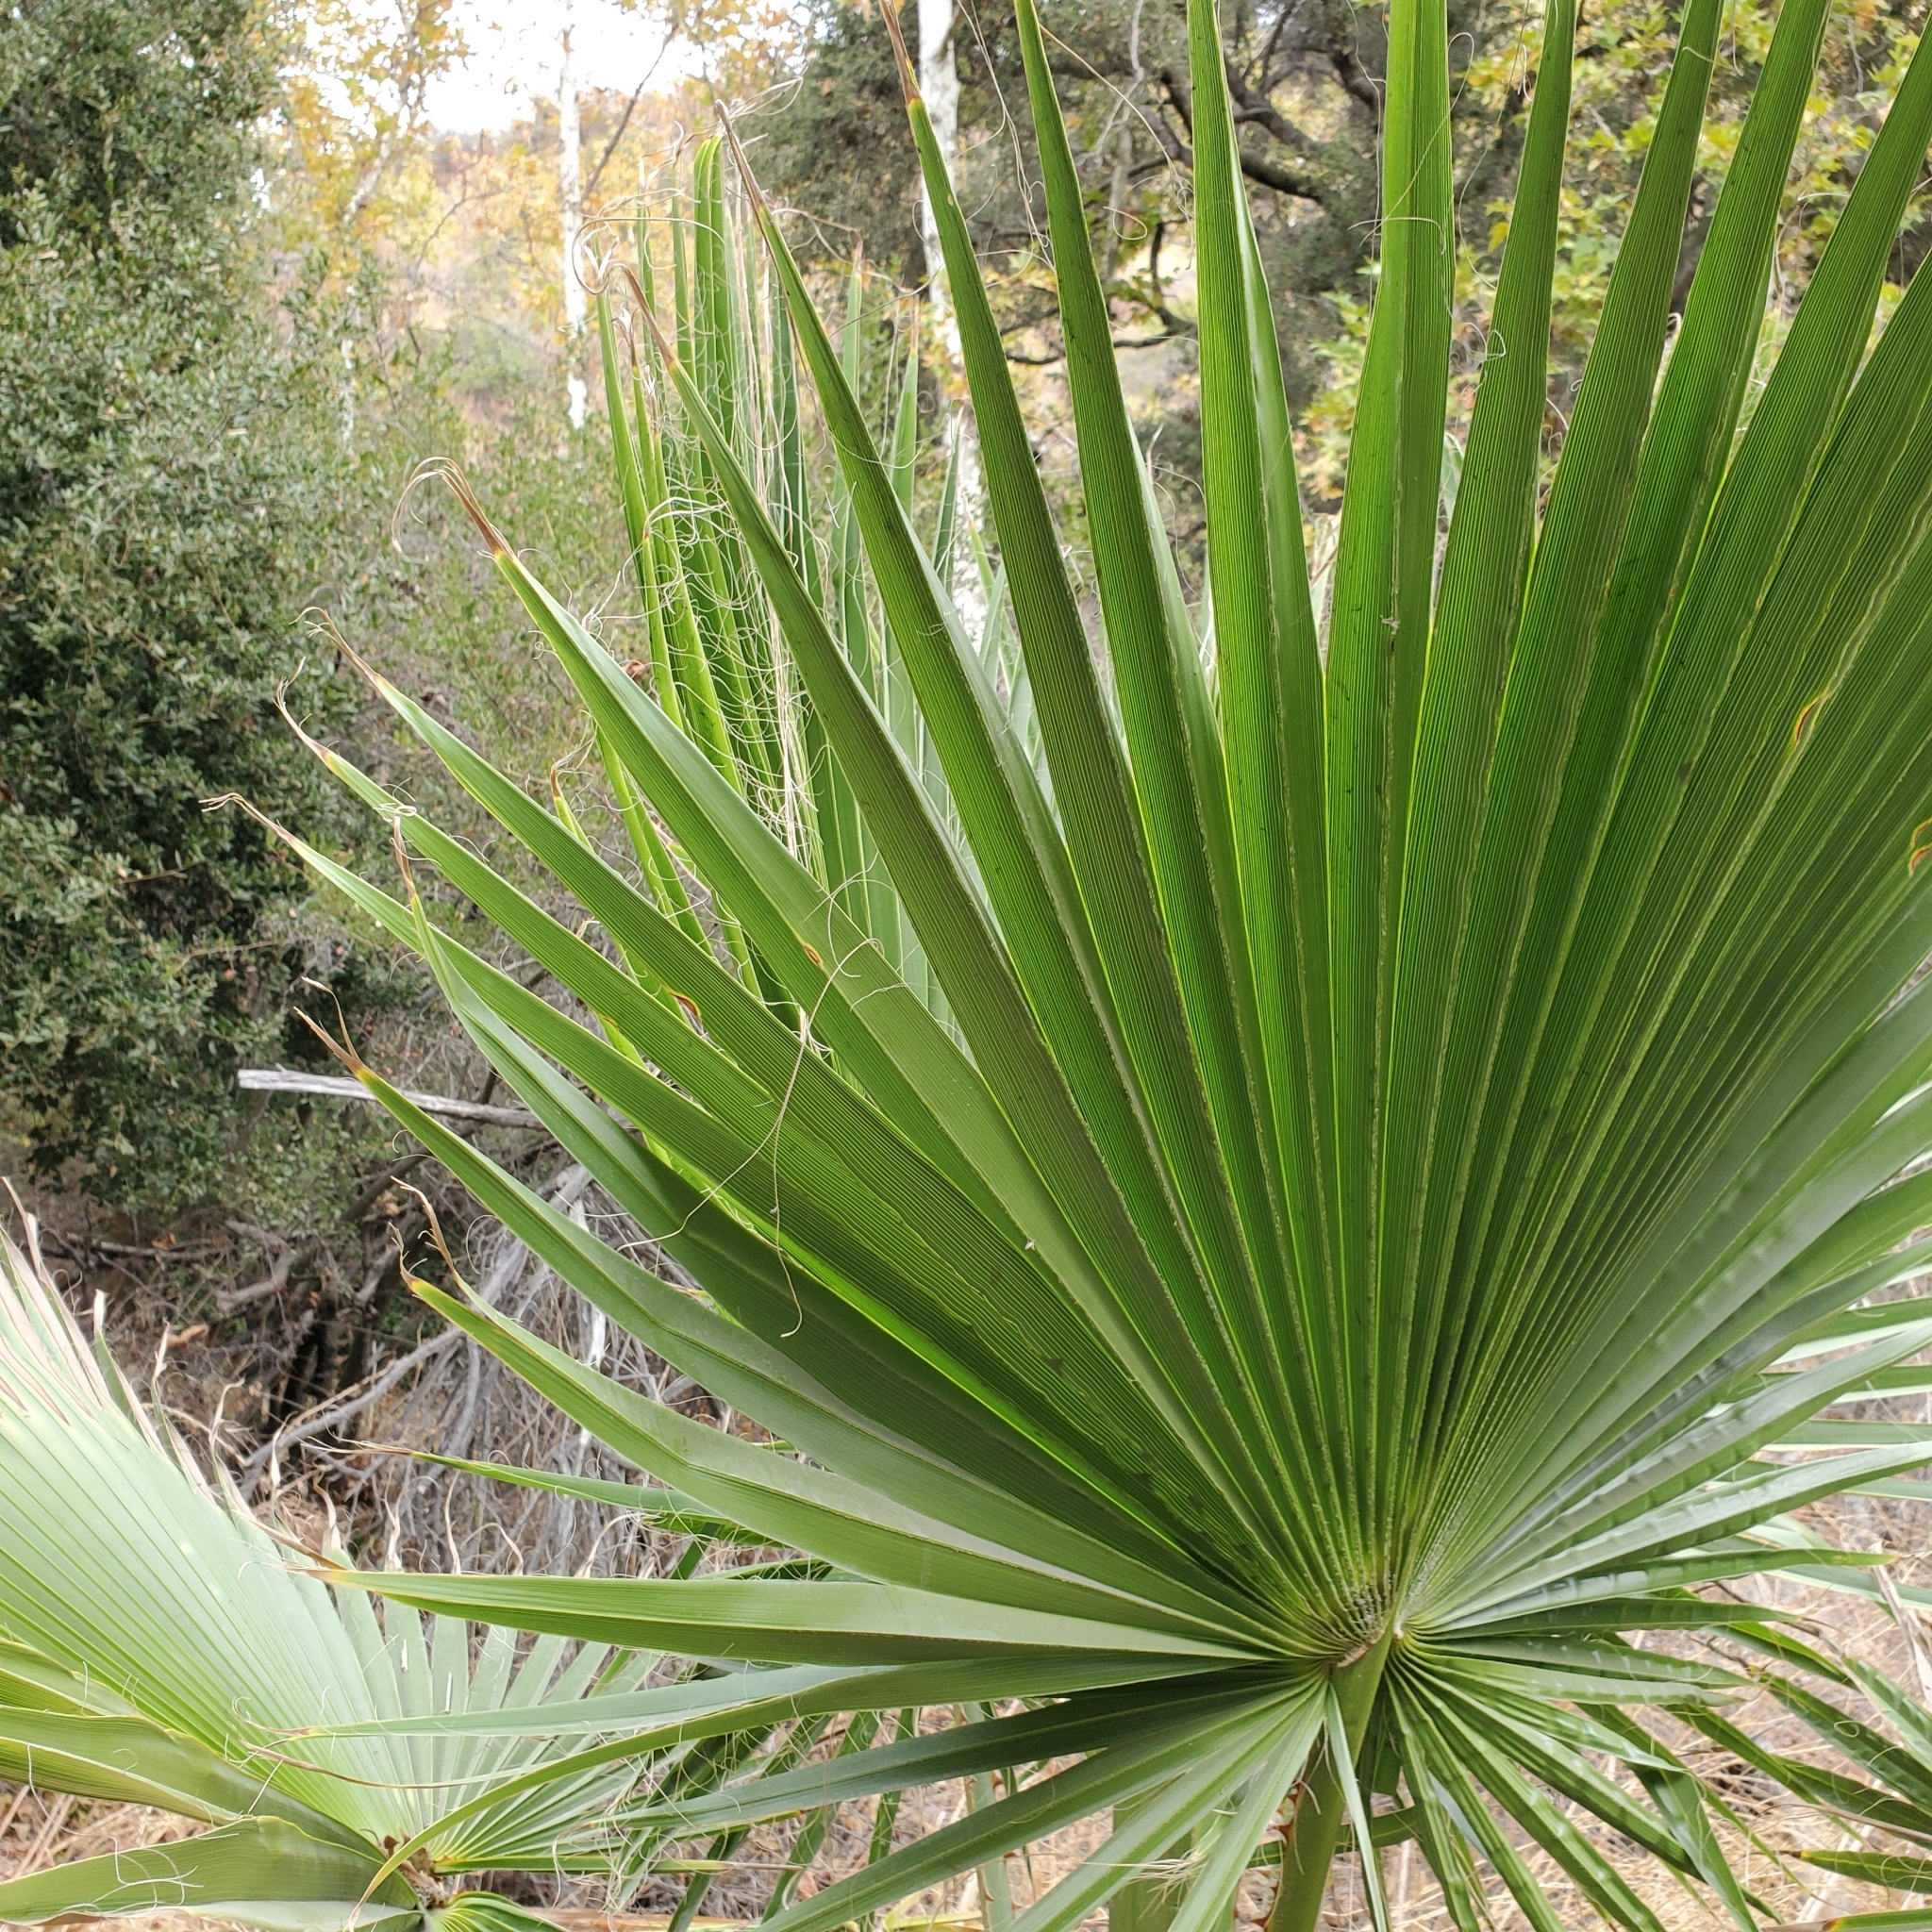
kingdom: Plantae
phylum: Tracheophyta
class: Liliopsida
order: Arecales
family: Arecaceae
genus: Washingtonia
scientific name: Washingtonia robusta
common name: Mexican fan palm
